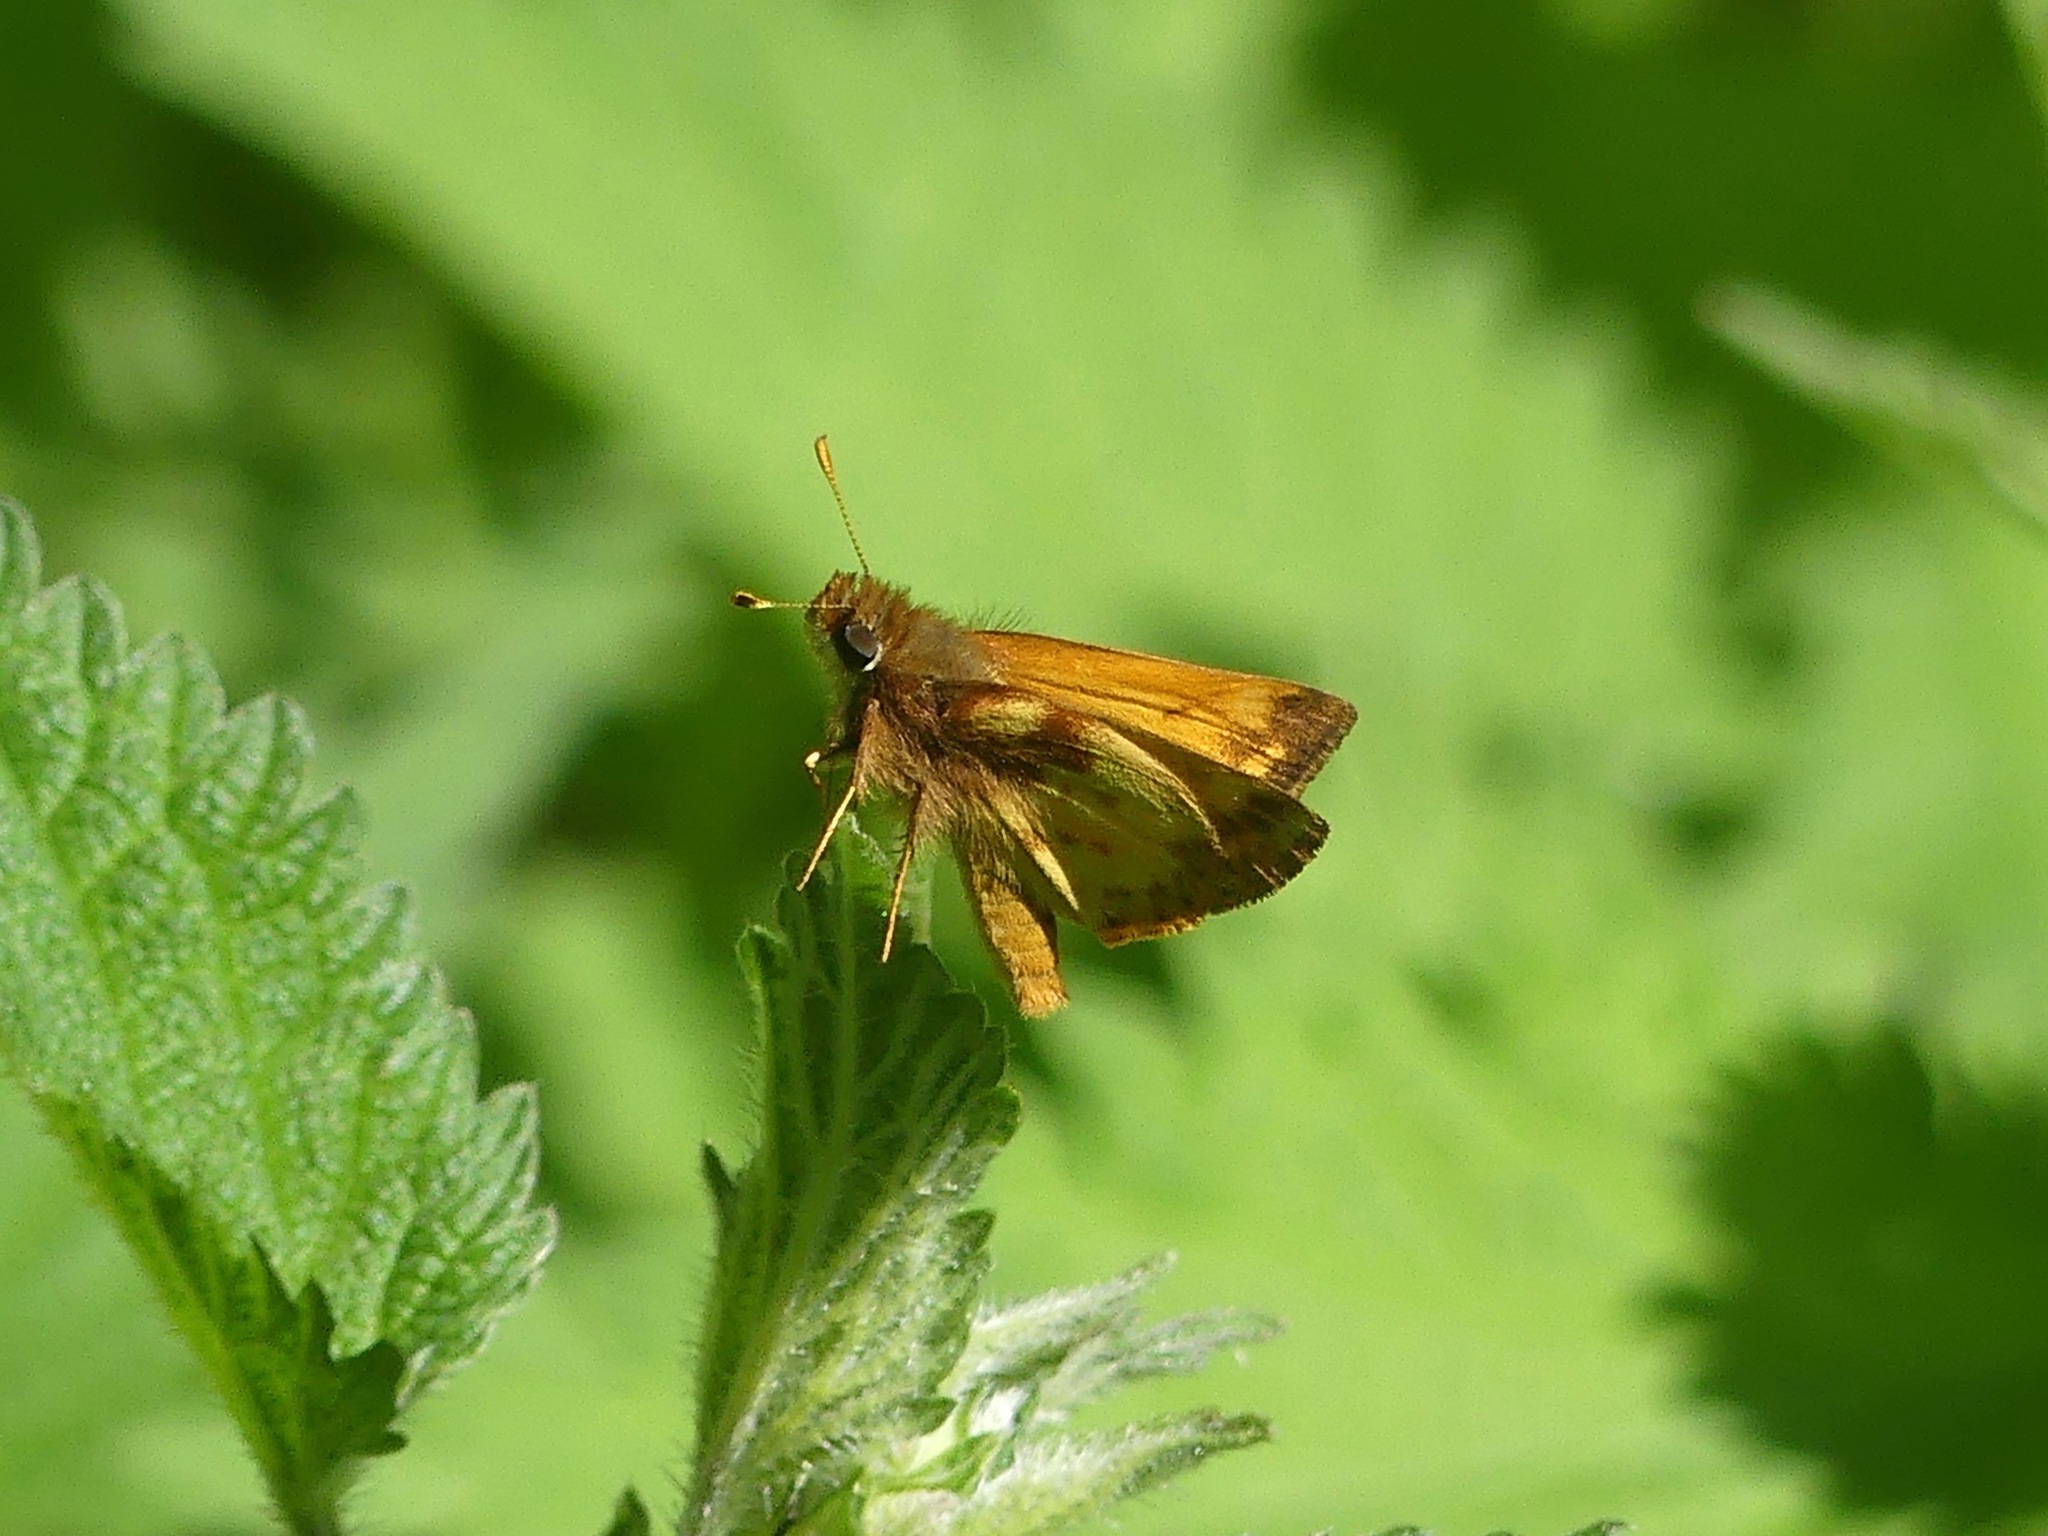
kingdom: Animalia
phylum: Arthropoda
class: Insecta
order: Lepidoptera
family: Hesperiidae
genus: Lon
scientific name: Lon zabulon
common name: Zabulon skipper
